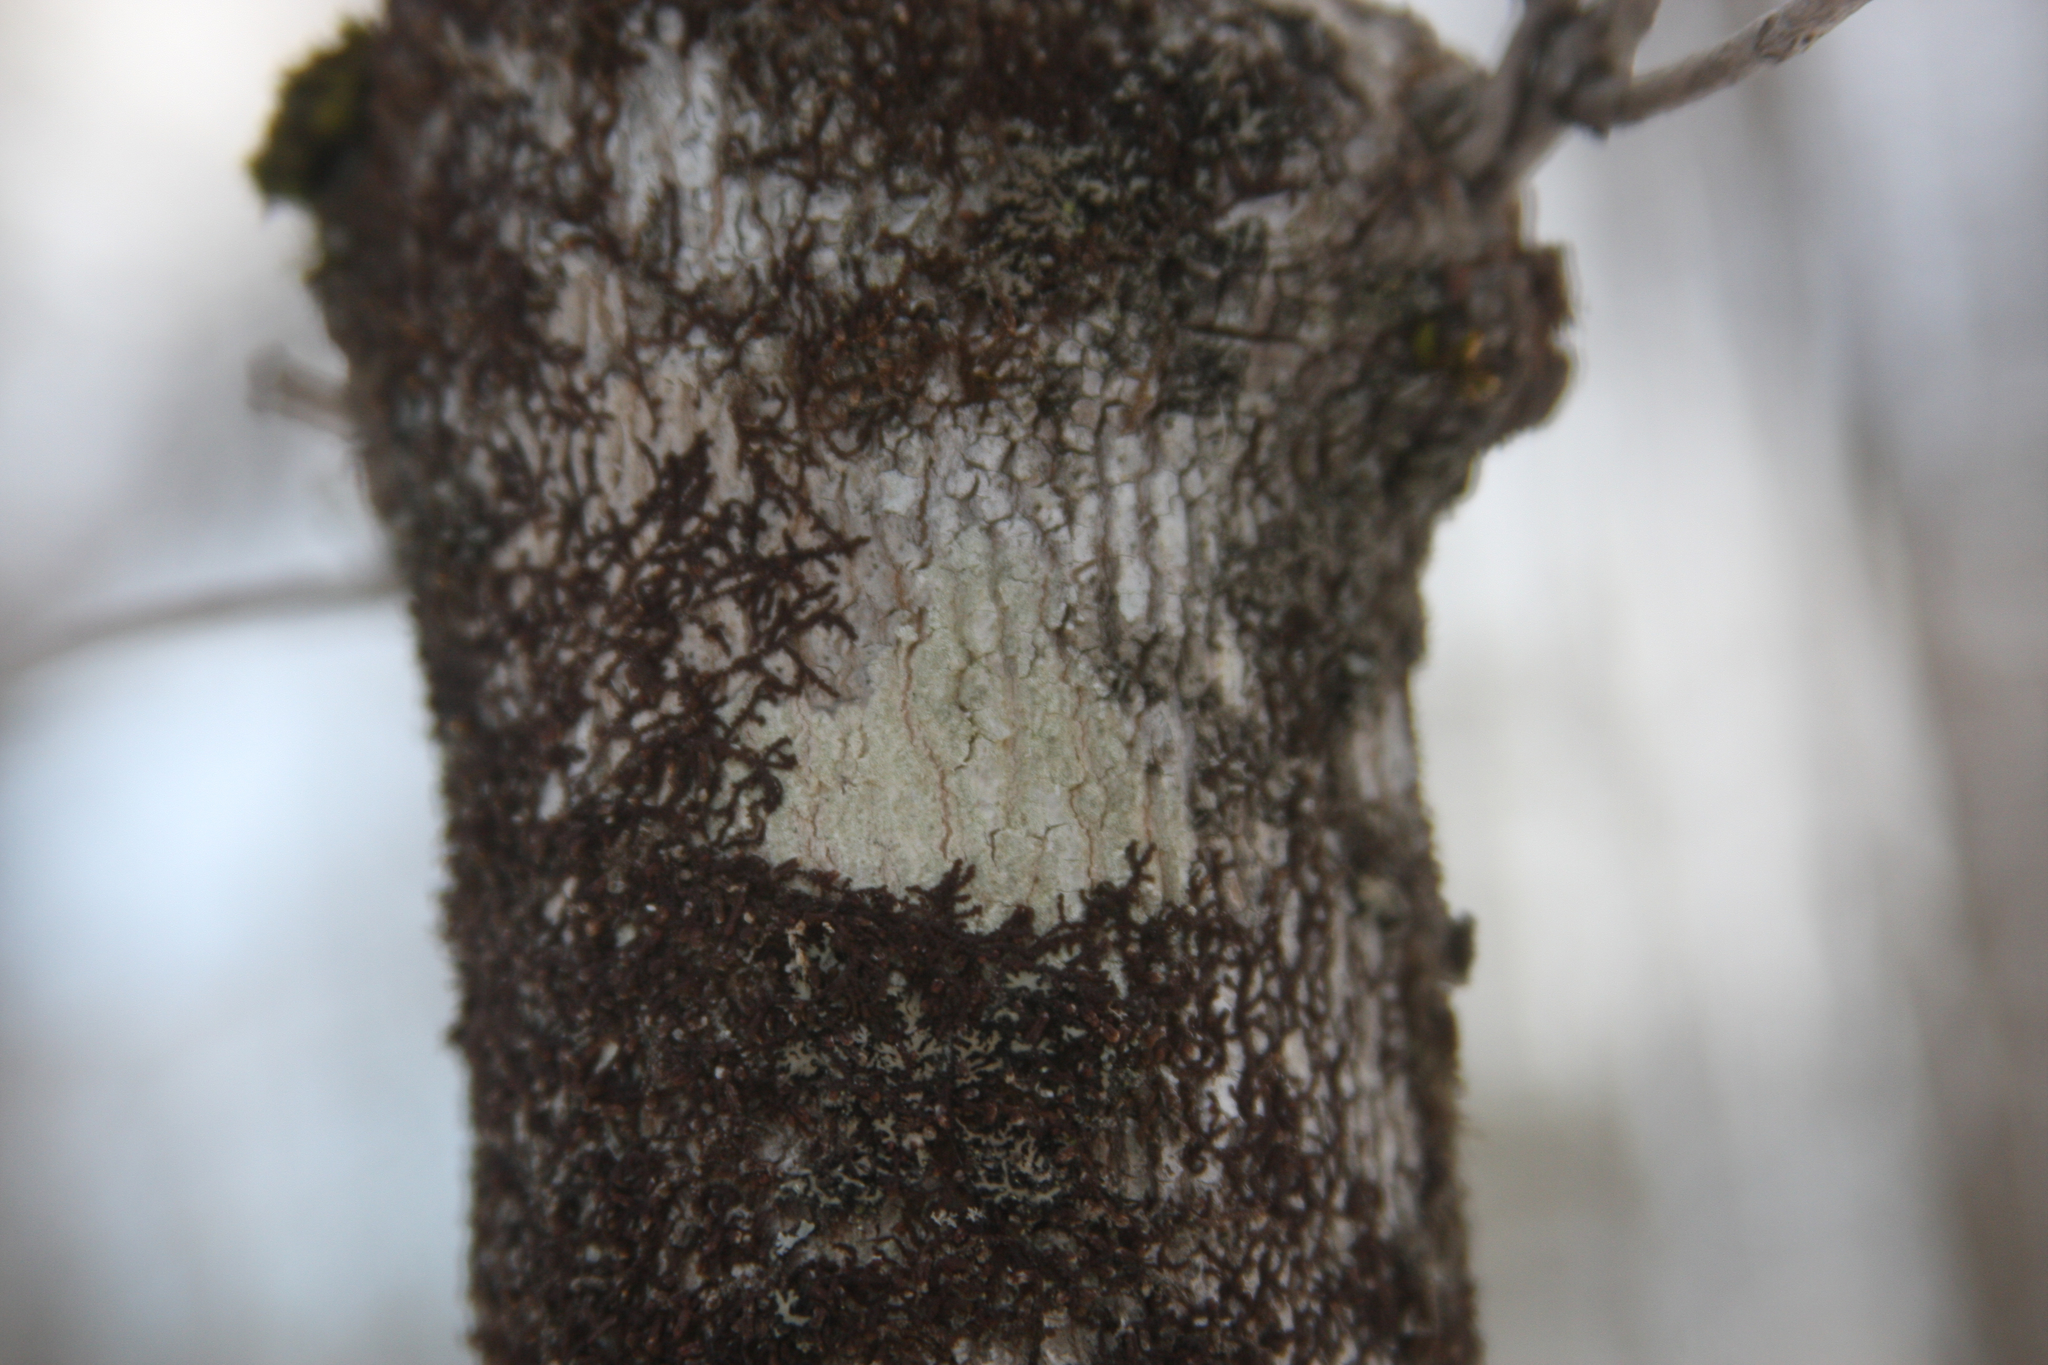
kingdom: Plantae
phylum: Marchantiophyta
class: Jungermanniopsida
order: Porellales
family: Frullaniaceae
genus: Frullania
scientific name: Frullania eboracensis
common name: New york scalewort
